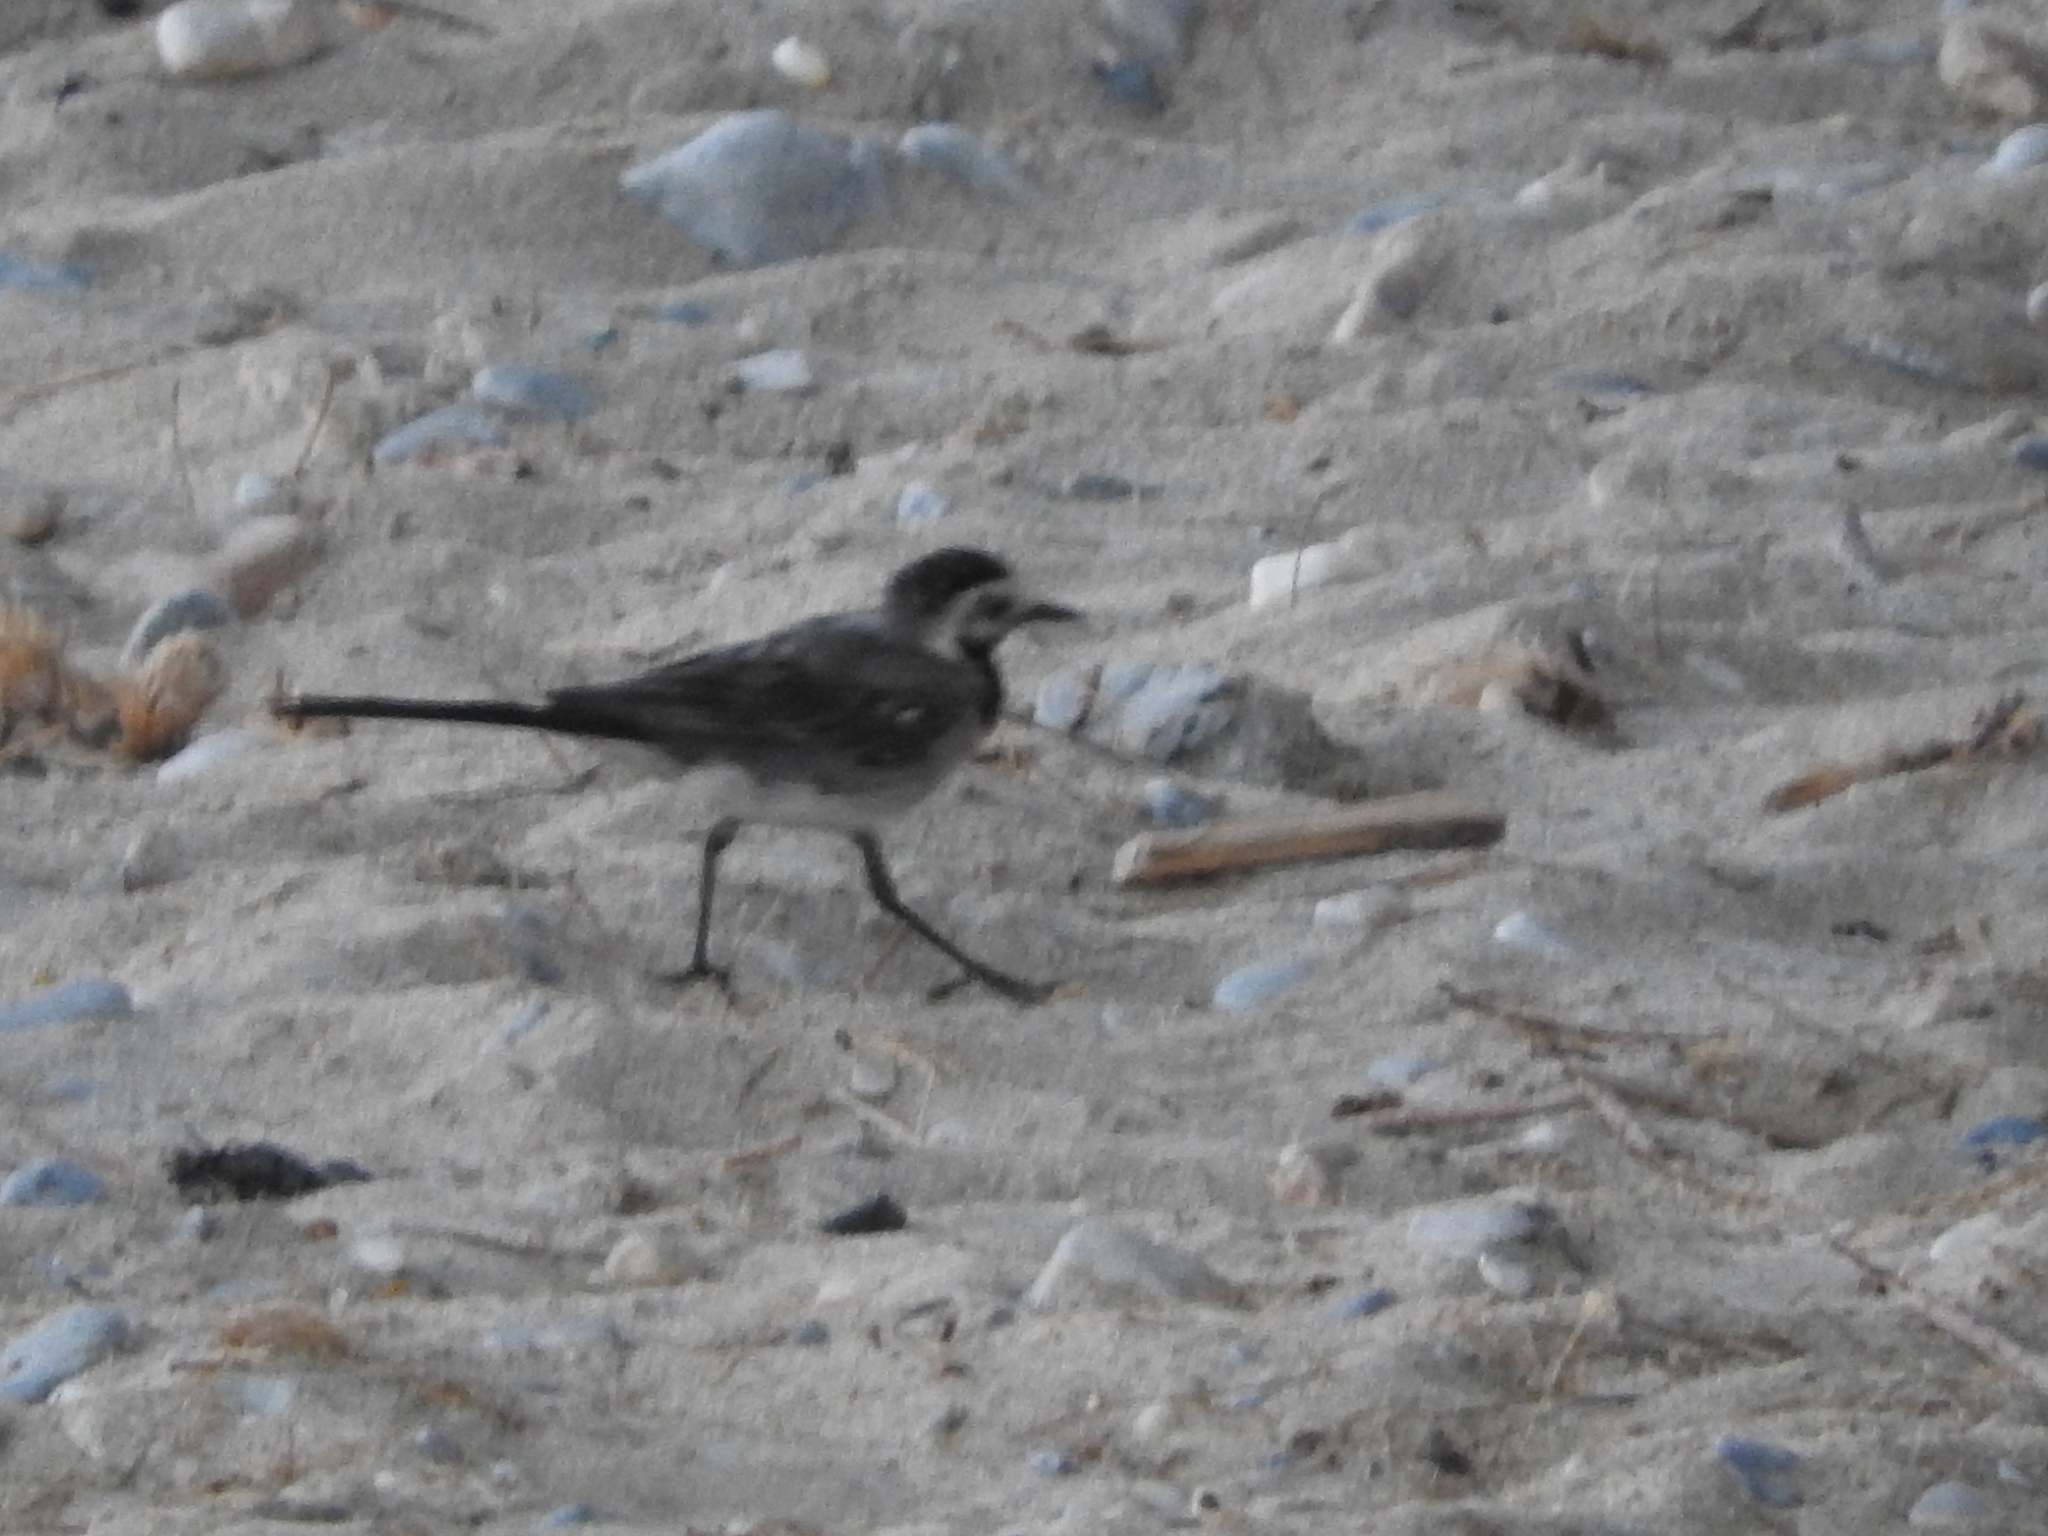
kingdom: Animalia
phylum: Chordata
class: Aves
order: Passeriformes
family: Motacillidae
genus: Motacilla
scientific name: Motacilla alba
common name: White wagtail
